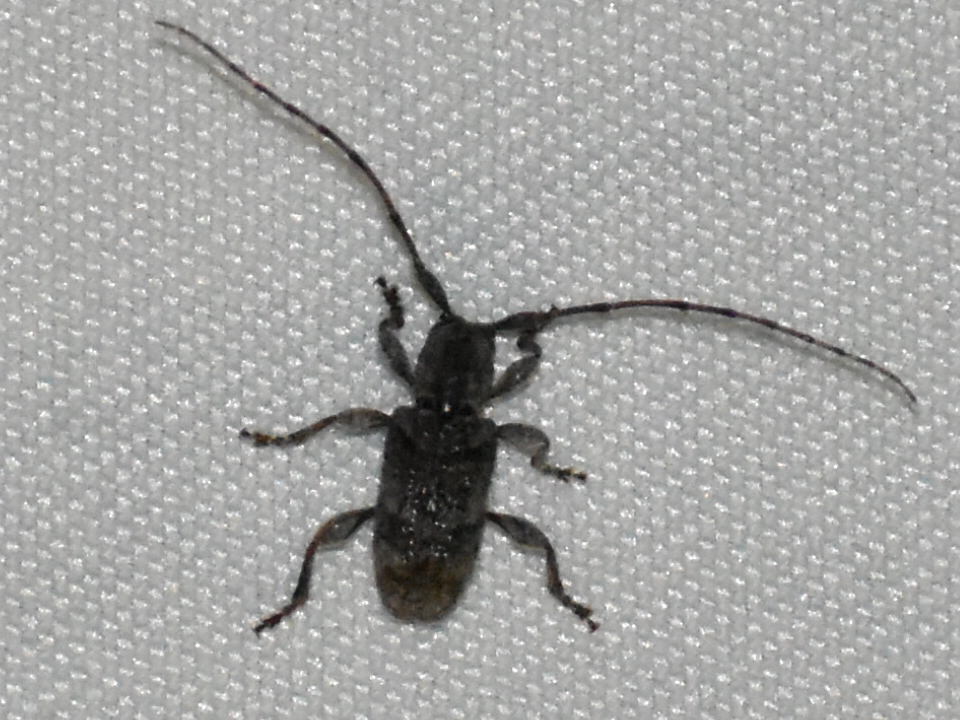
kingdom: Animalia
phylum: Arthropoda
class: Insecta
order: Coleoptera
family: Cerambycidae
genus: Ecyrus
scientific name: Ecyrus dasycerus
